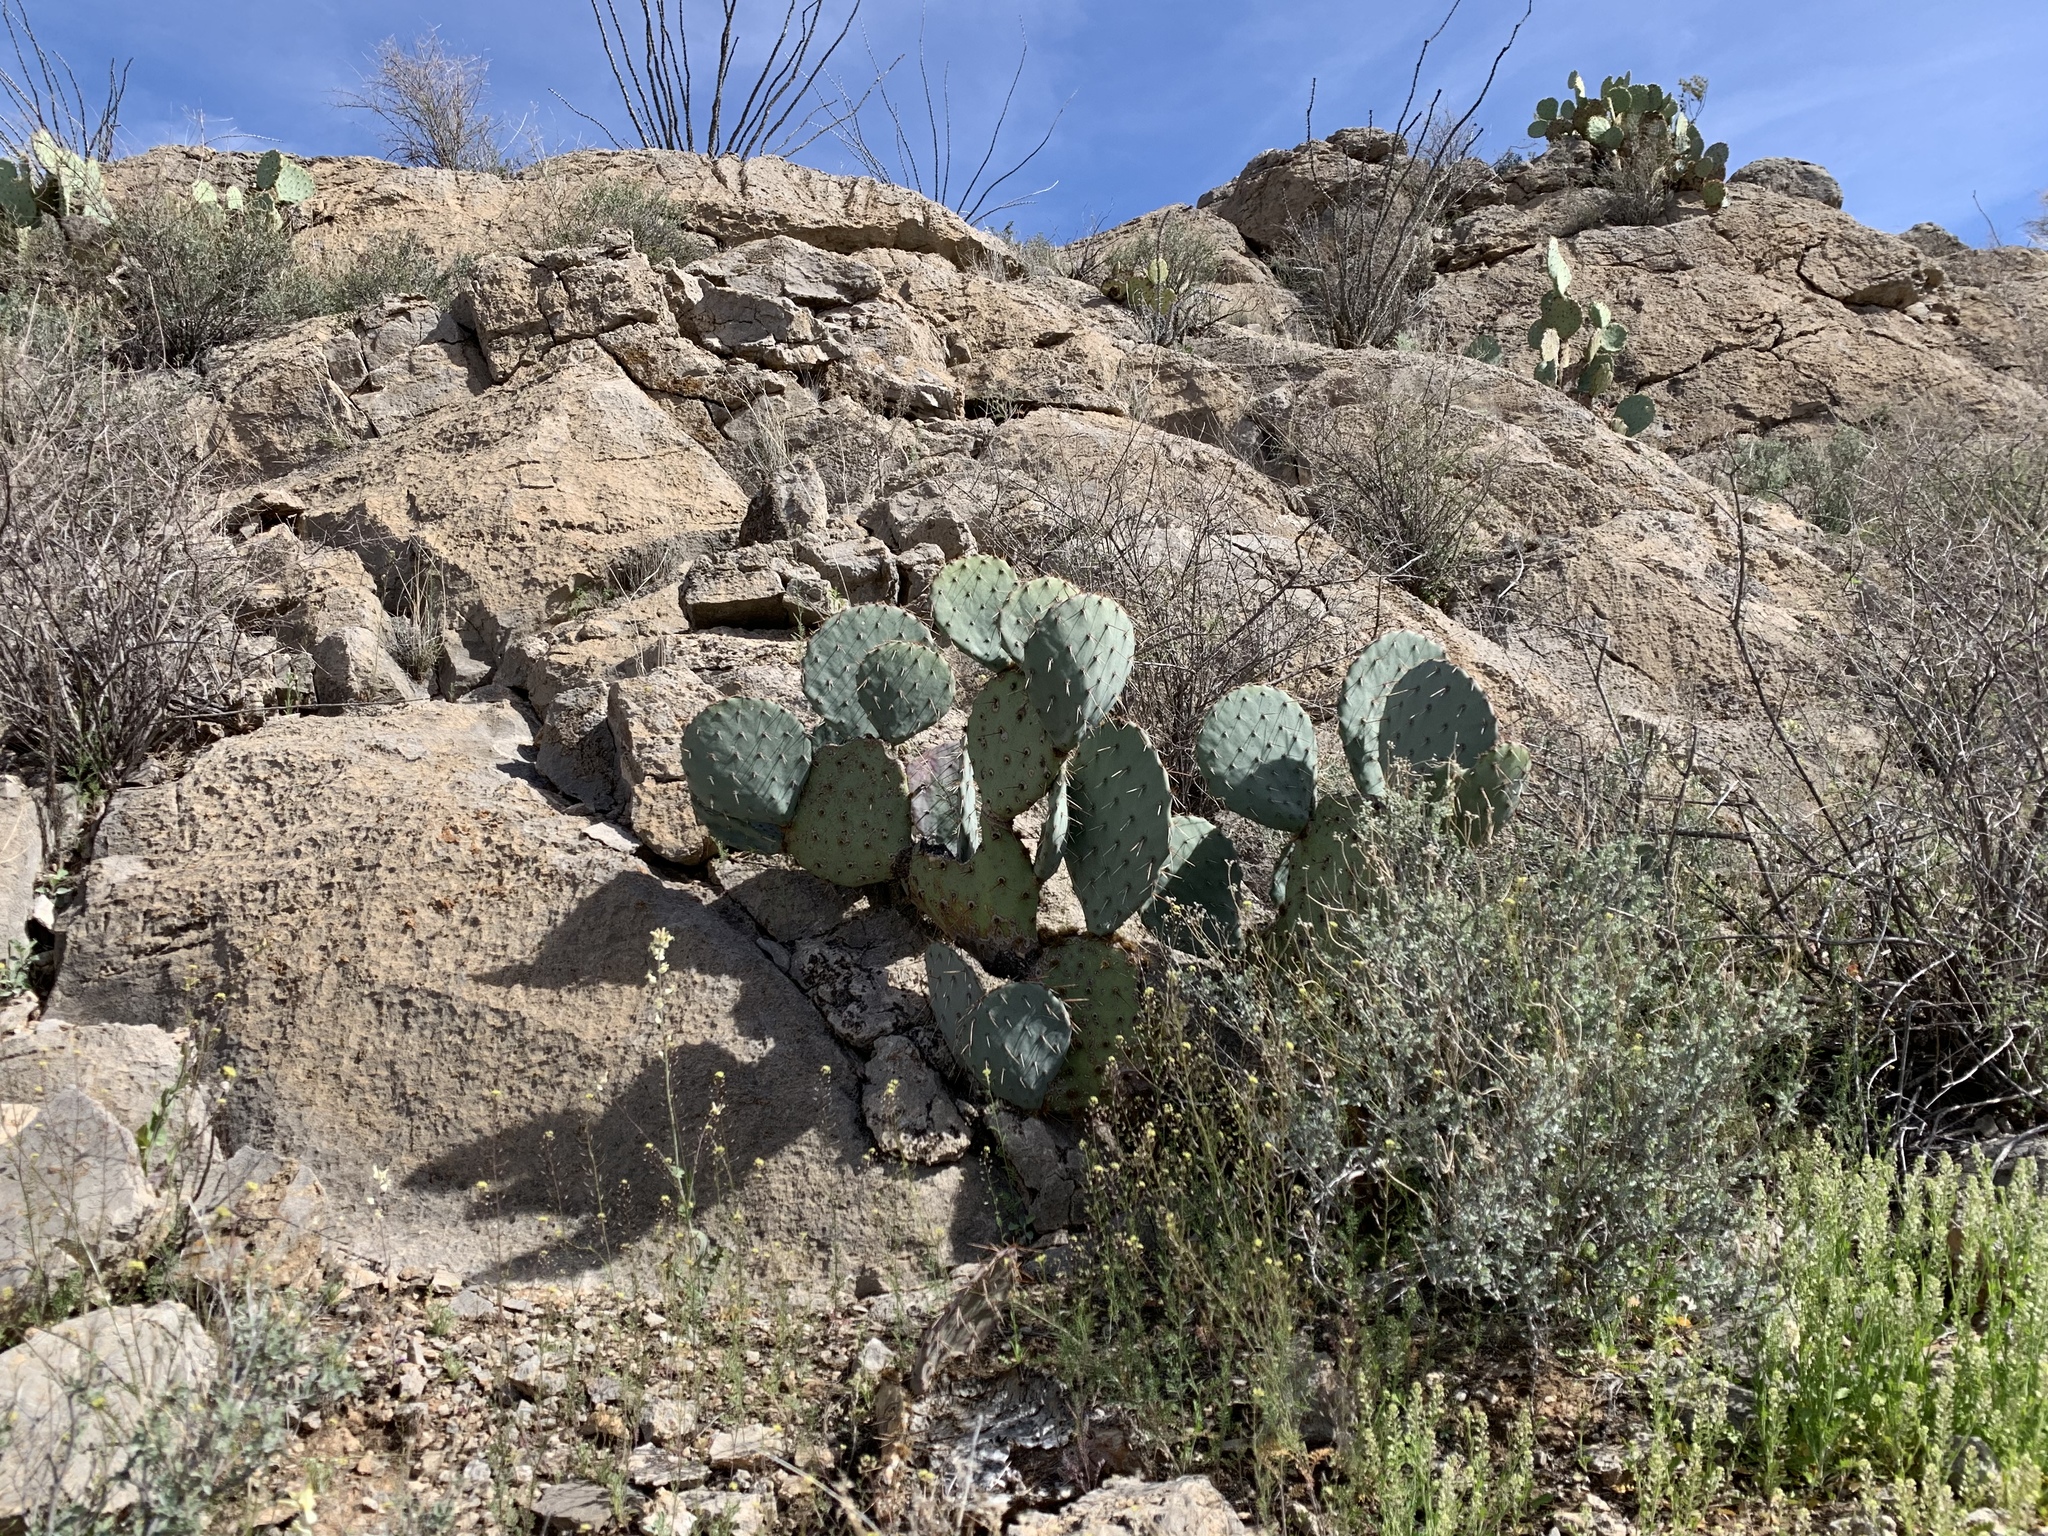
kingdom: Plantae
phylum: Tracheophyta
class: Magnoliopsida
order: Caryophyllales
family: Cactaceae
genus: Opuntia
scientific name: Opuntia engelmannii
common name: Cactus-apple
